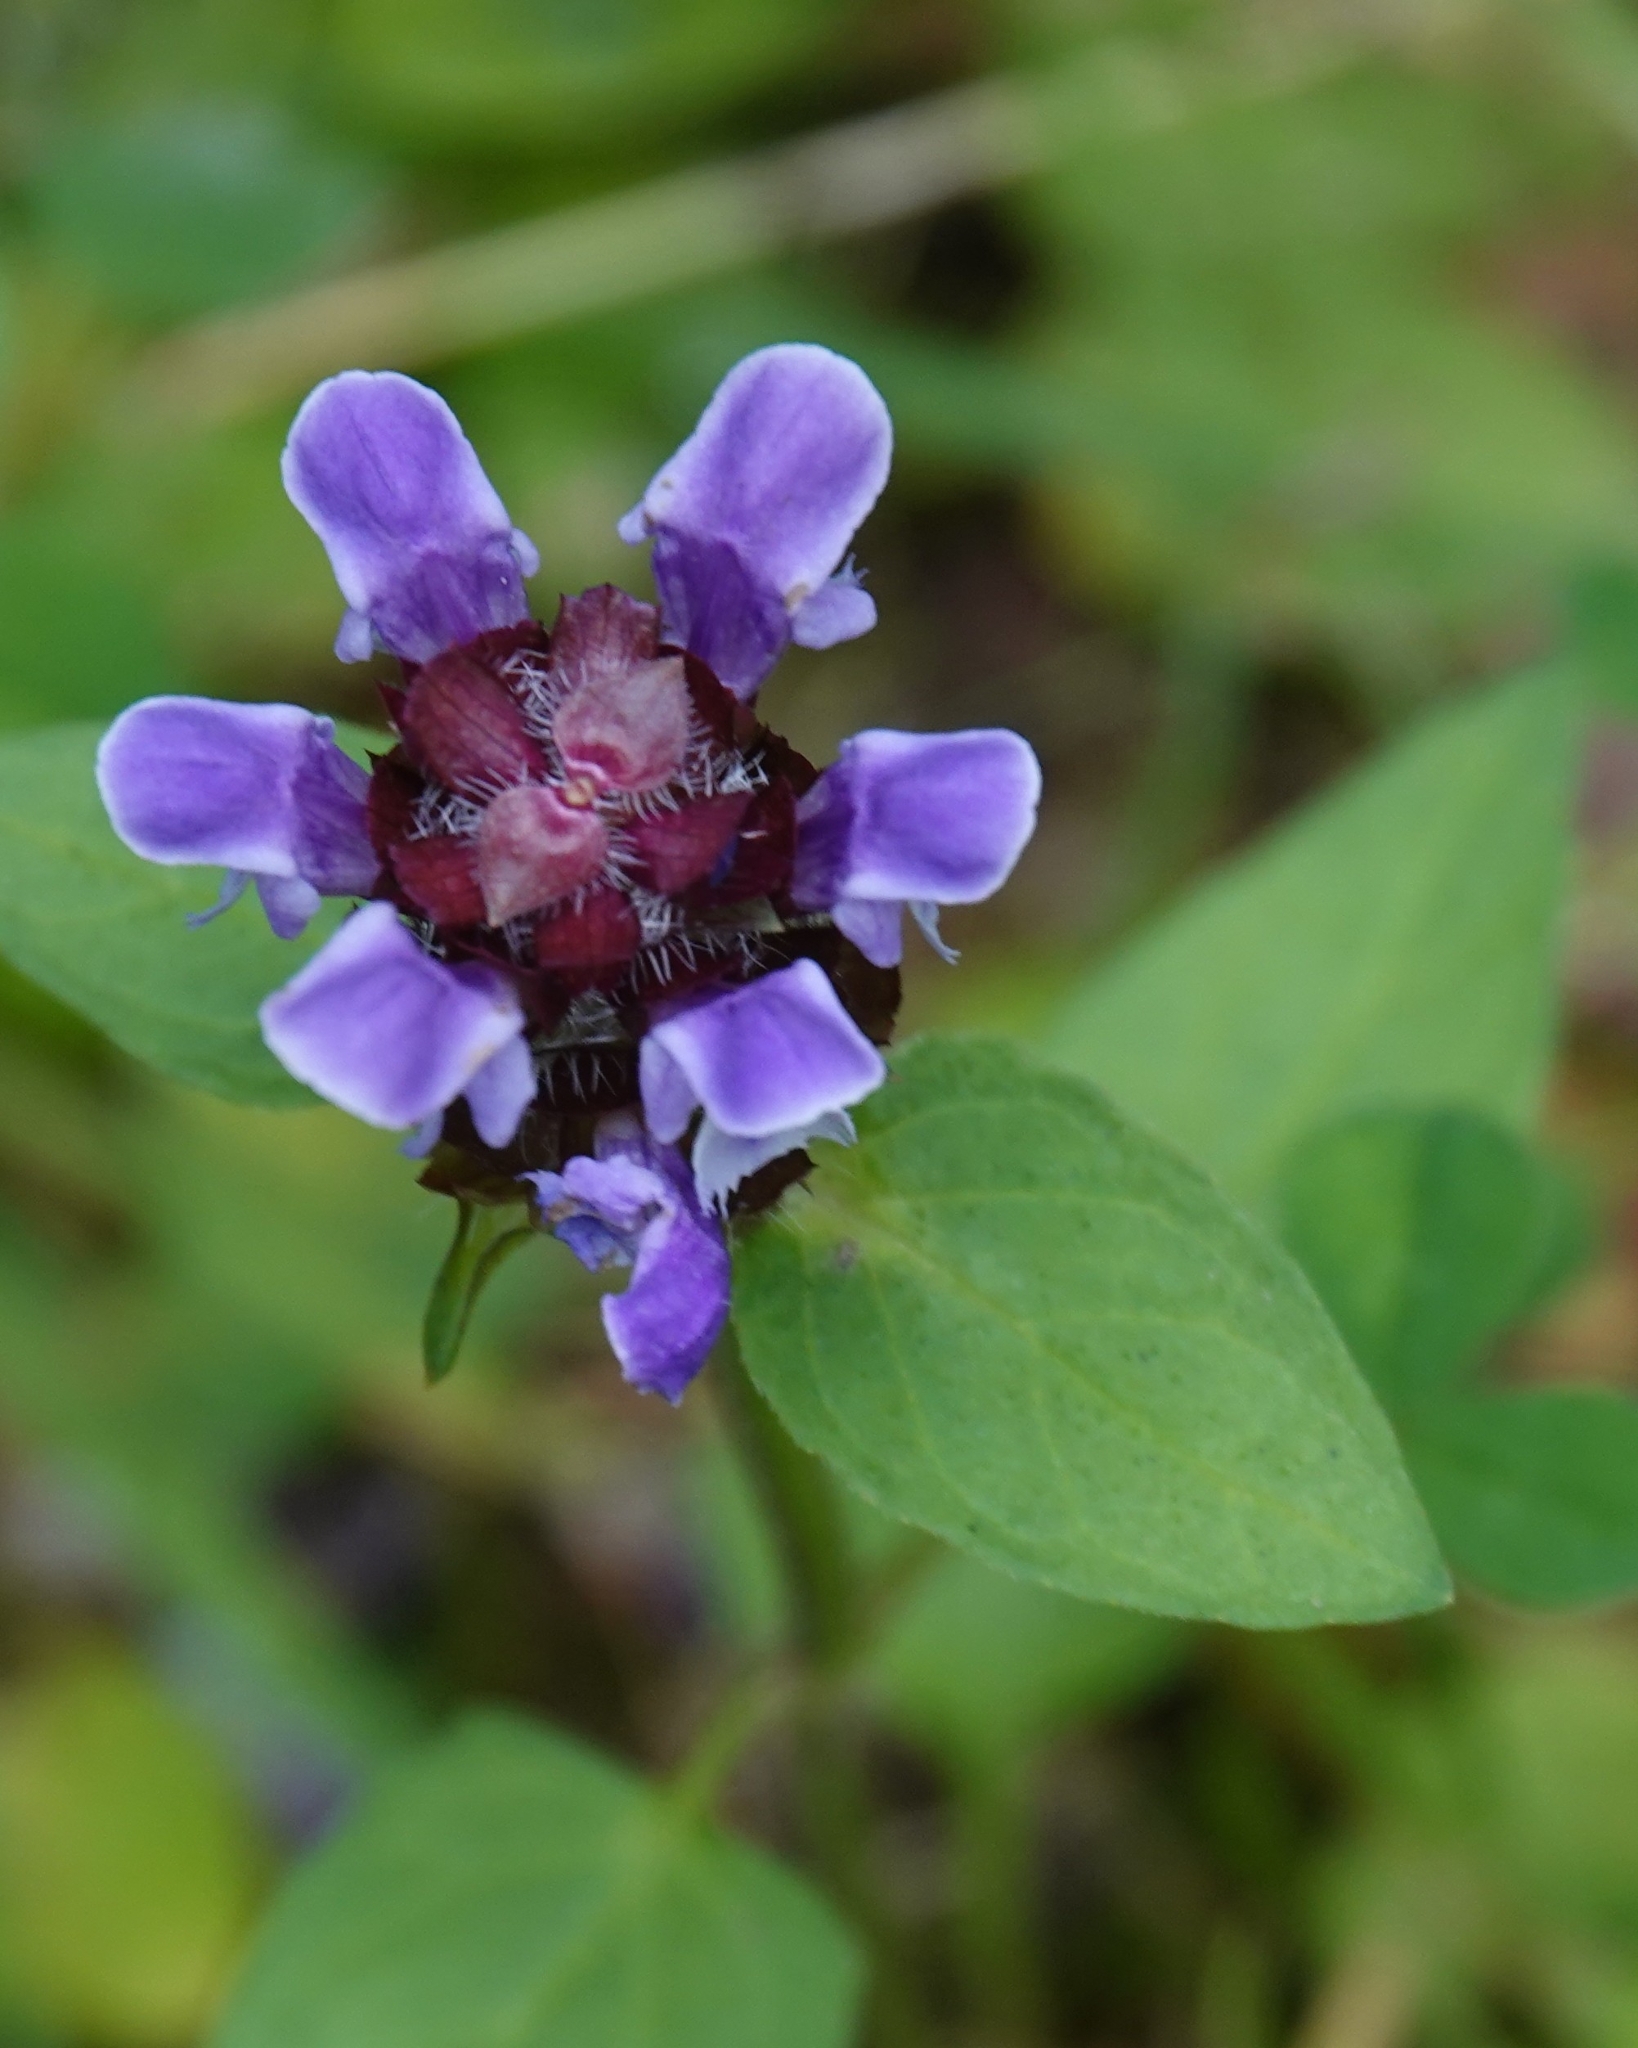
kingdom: Plantae
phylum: Tracheophyta
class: Magnoliopsida
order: Lamiales
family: Lamiaceae
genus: Prunella
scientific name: Prunella vulgaris
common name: Heal-all
